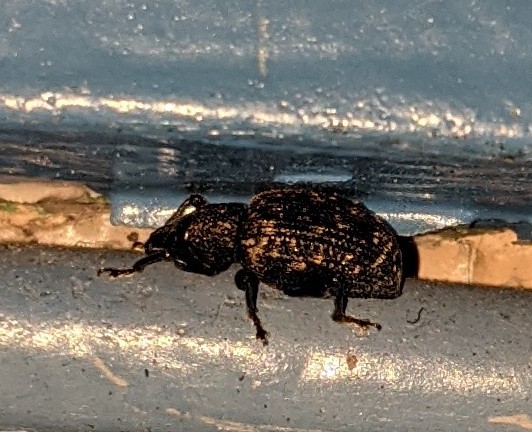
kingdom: Animalia
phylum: Arthropoda
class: Insecta
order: Coleoptera
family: Curculionidae
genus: Otiorhynchus
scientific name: Otiorhynchus sulcatus
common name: Black vine weevil
